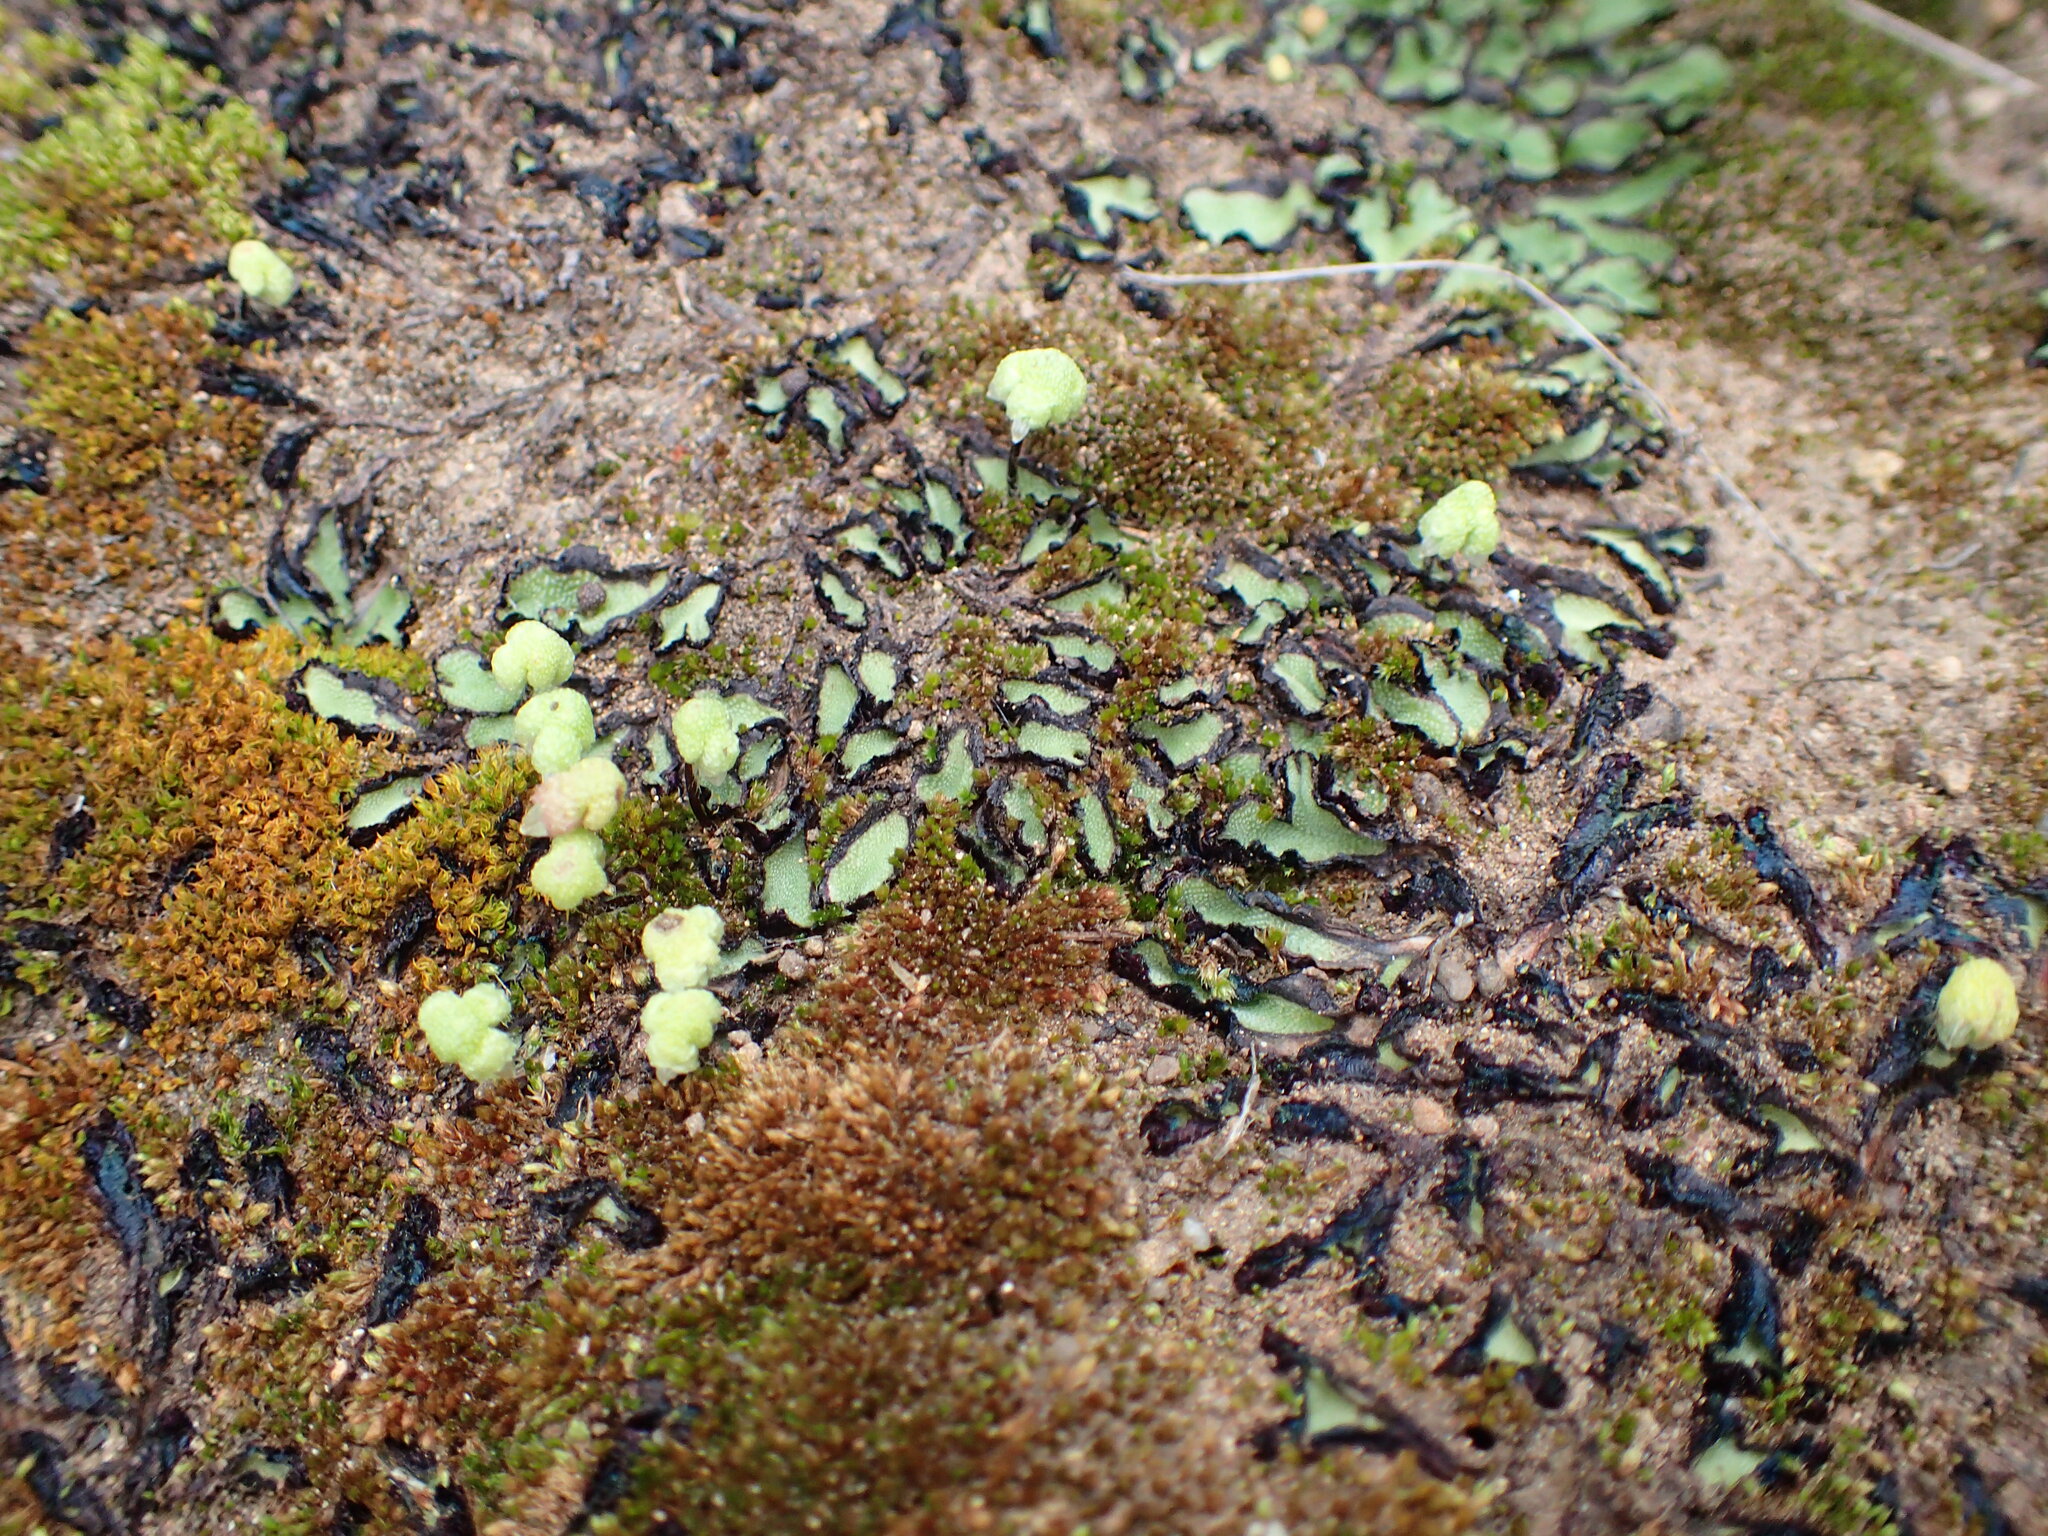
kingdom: Plantae
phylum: Marchantiophyta
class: Marchantiopsida
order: Marchantiales
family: Aytoniaceae
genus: Asterella
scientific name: Asterella californica
